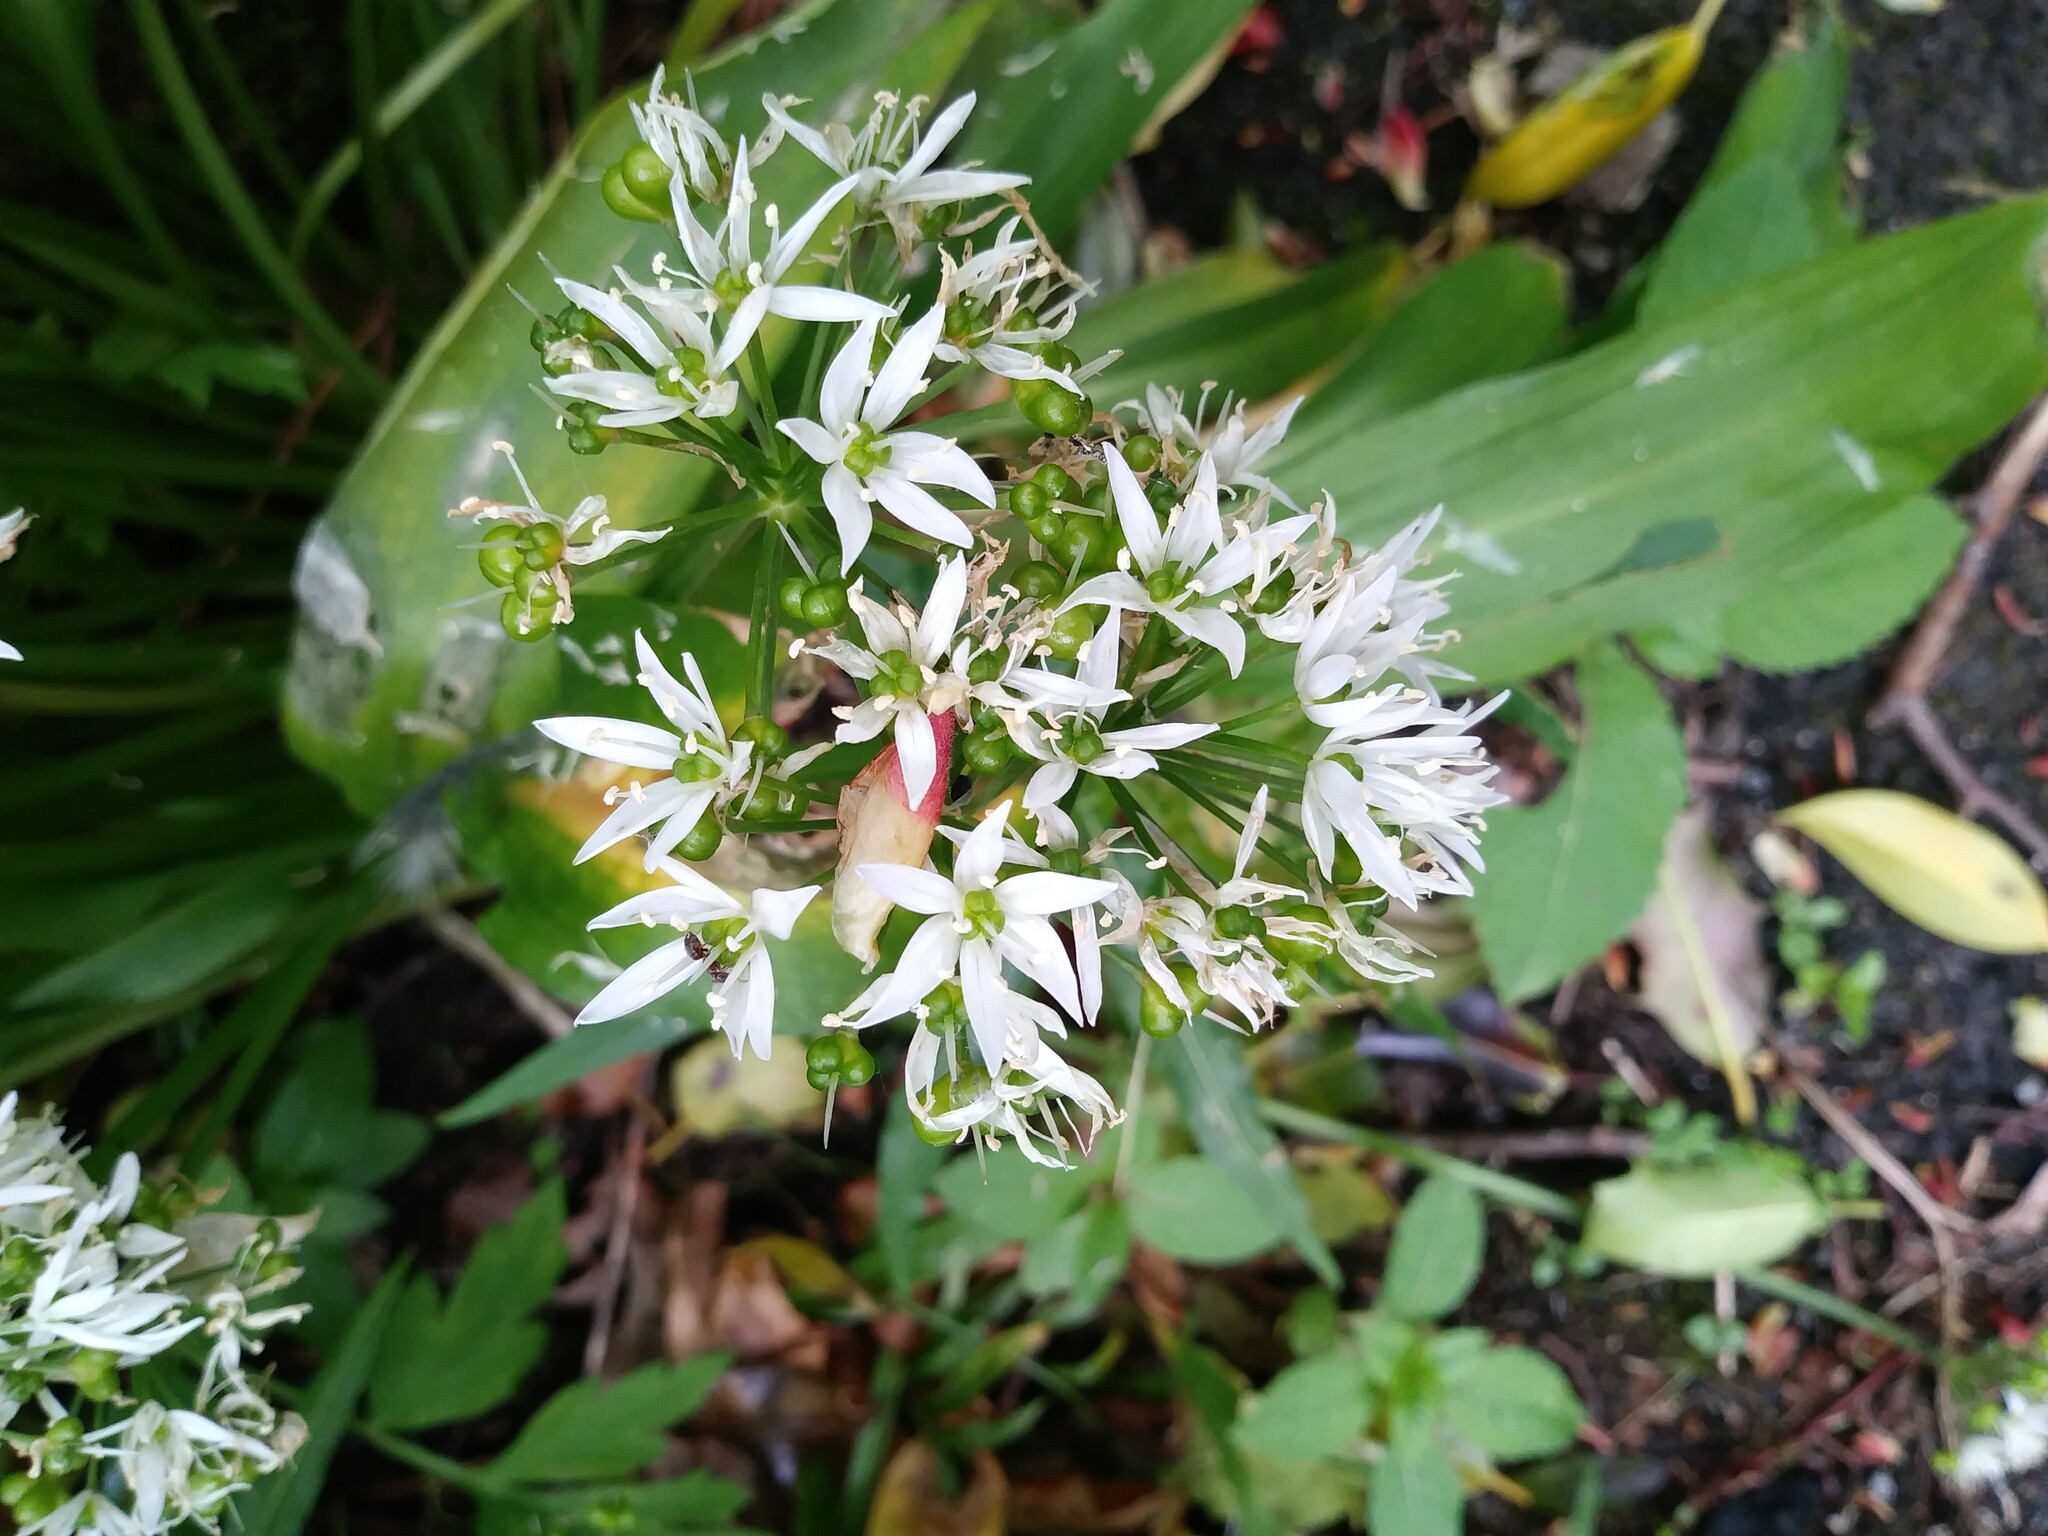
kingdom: Plantae
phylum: Tracheophyta
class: Liliopsida
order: Asparagales
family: Amaryllidaceae
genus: Allium
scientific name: Allium ursinum
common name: Ramsons
